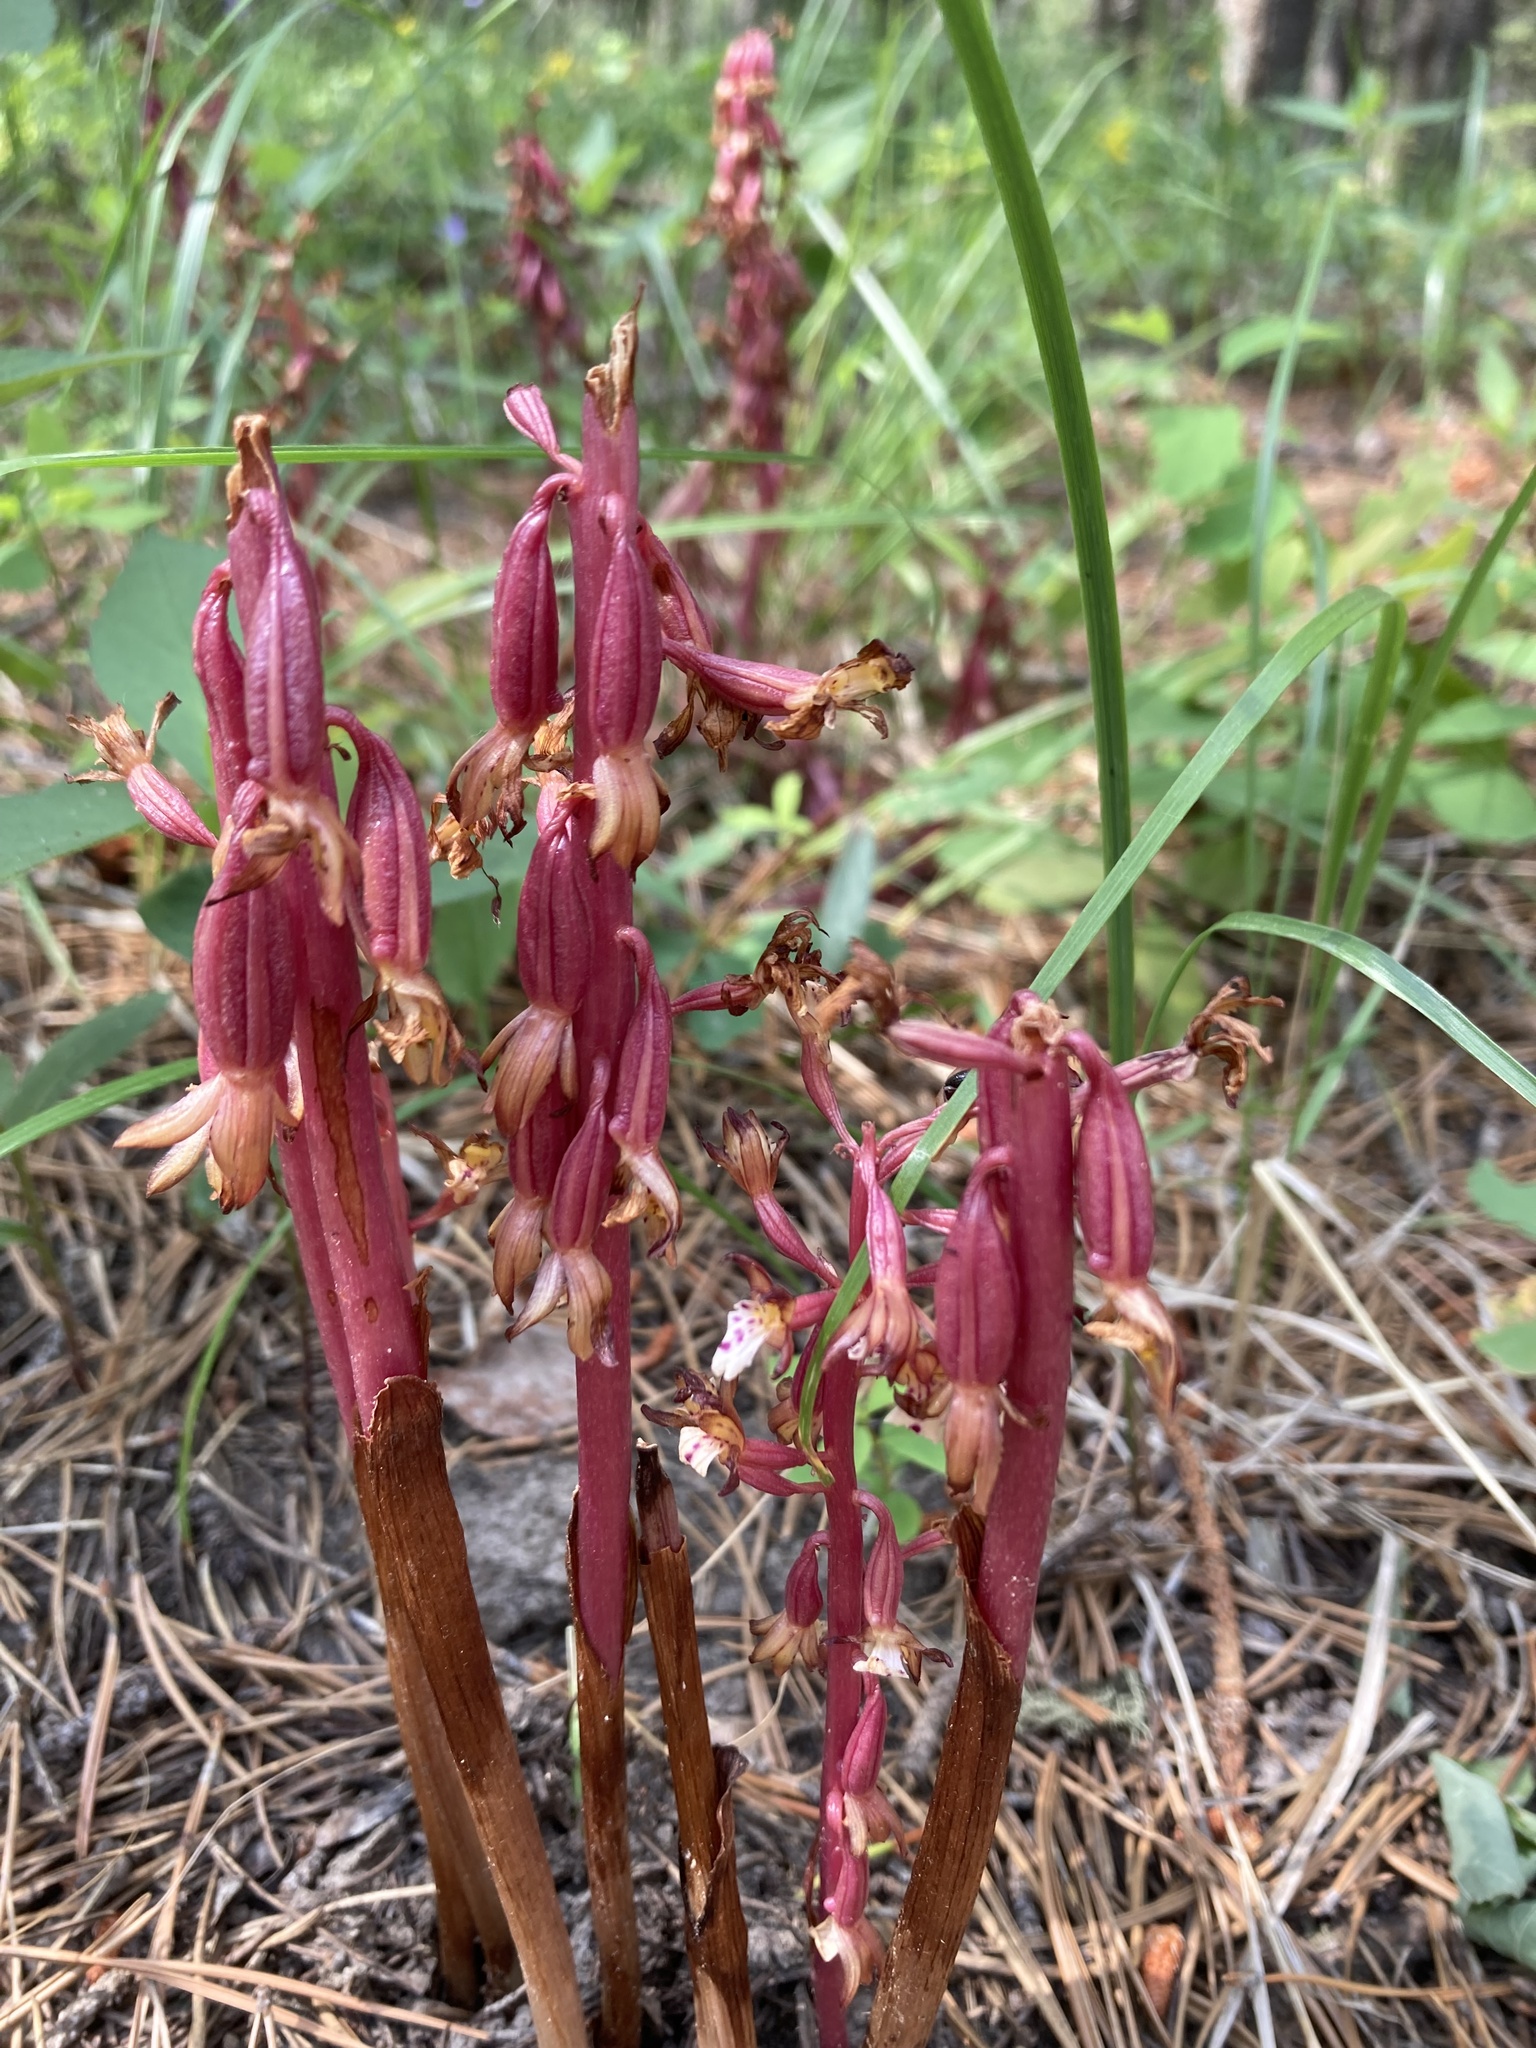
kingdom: Plantae
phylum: Tracheophyta
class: Liliopsida
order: Asparagales
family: Orchidaceae
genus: Corallorhiza
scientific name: Corallorhiza maculata
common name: Spotted coralroot
